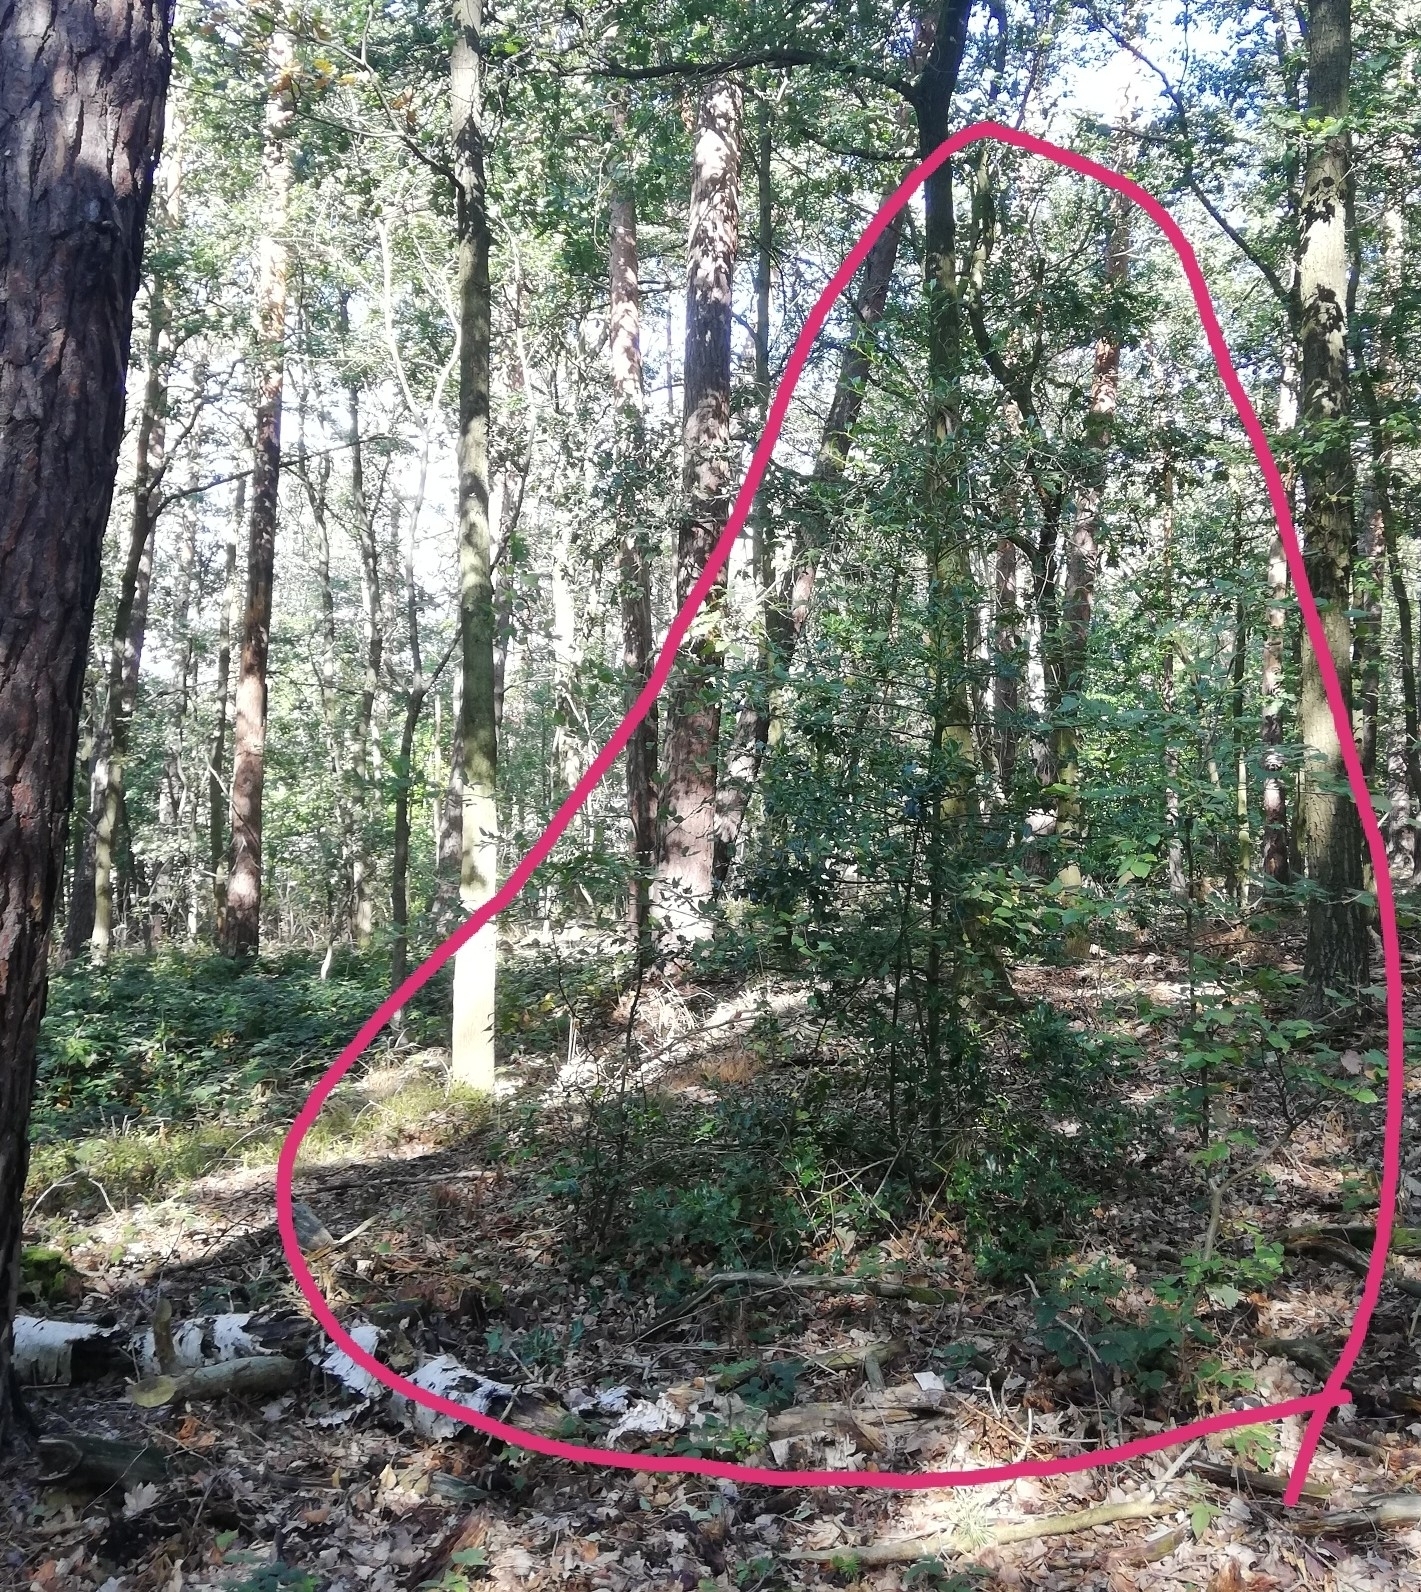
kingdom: Plantae
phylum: Tracheophyta
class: Magnoliopsida
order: Aquifoliales
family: Aquifoliaceae
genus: Ilex
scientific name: Ilex aquifolium
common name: English holly
